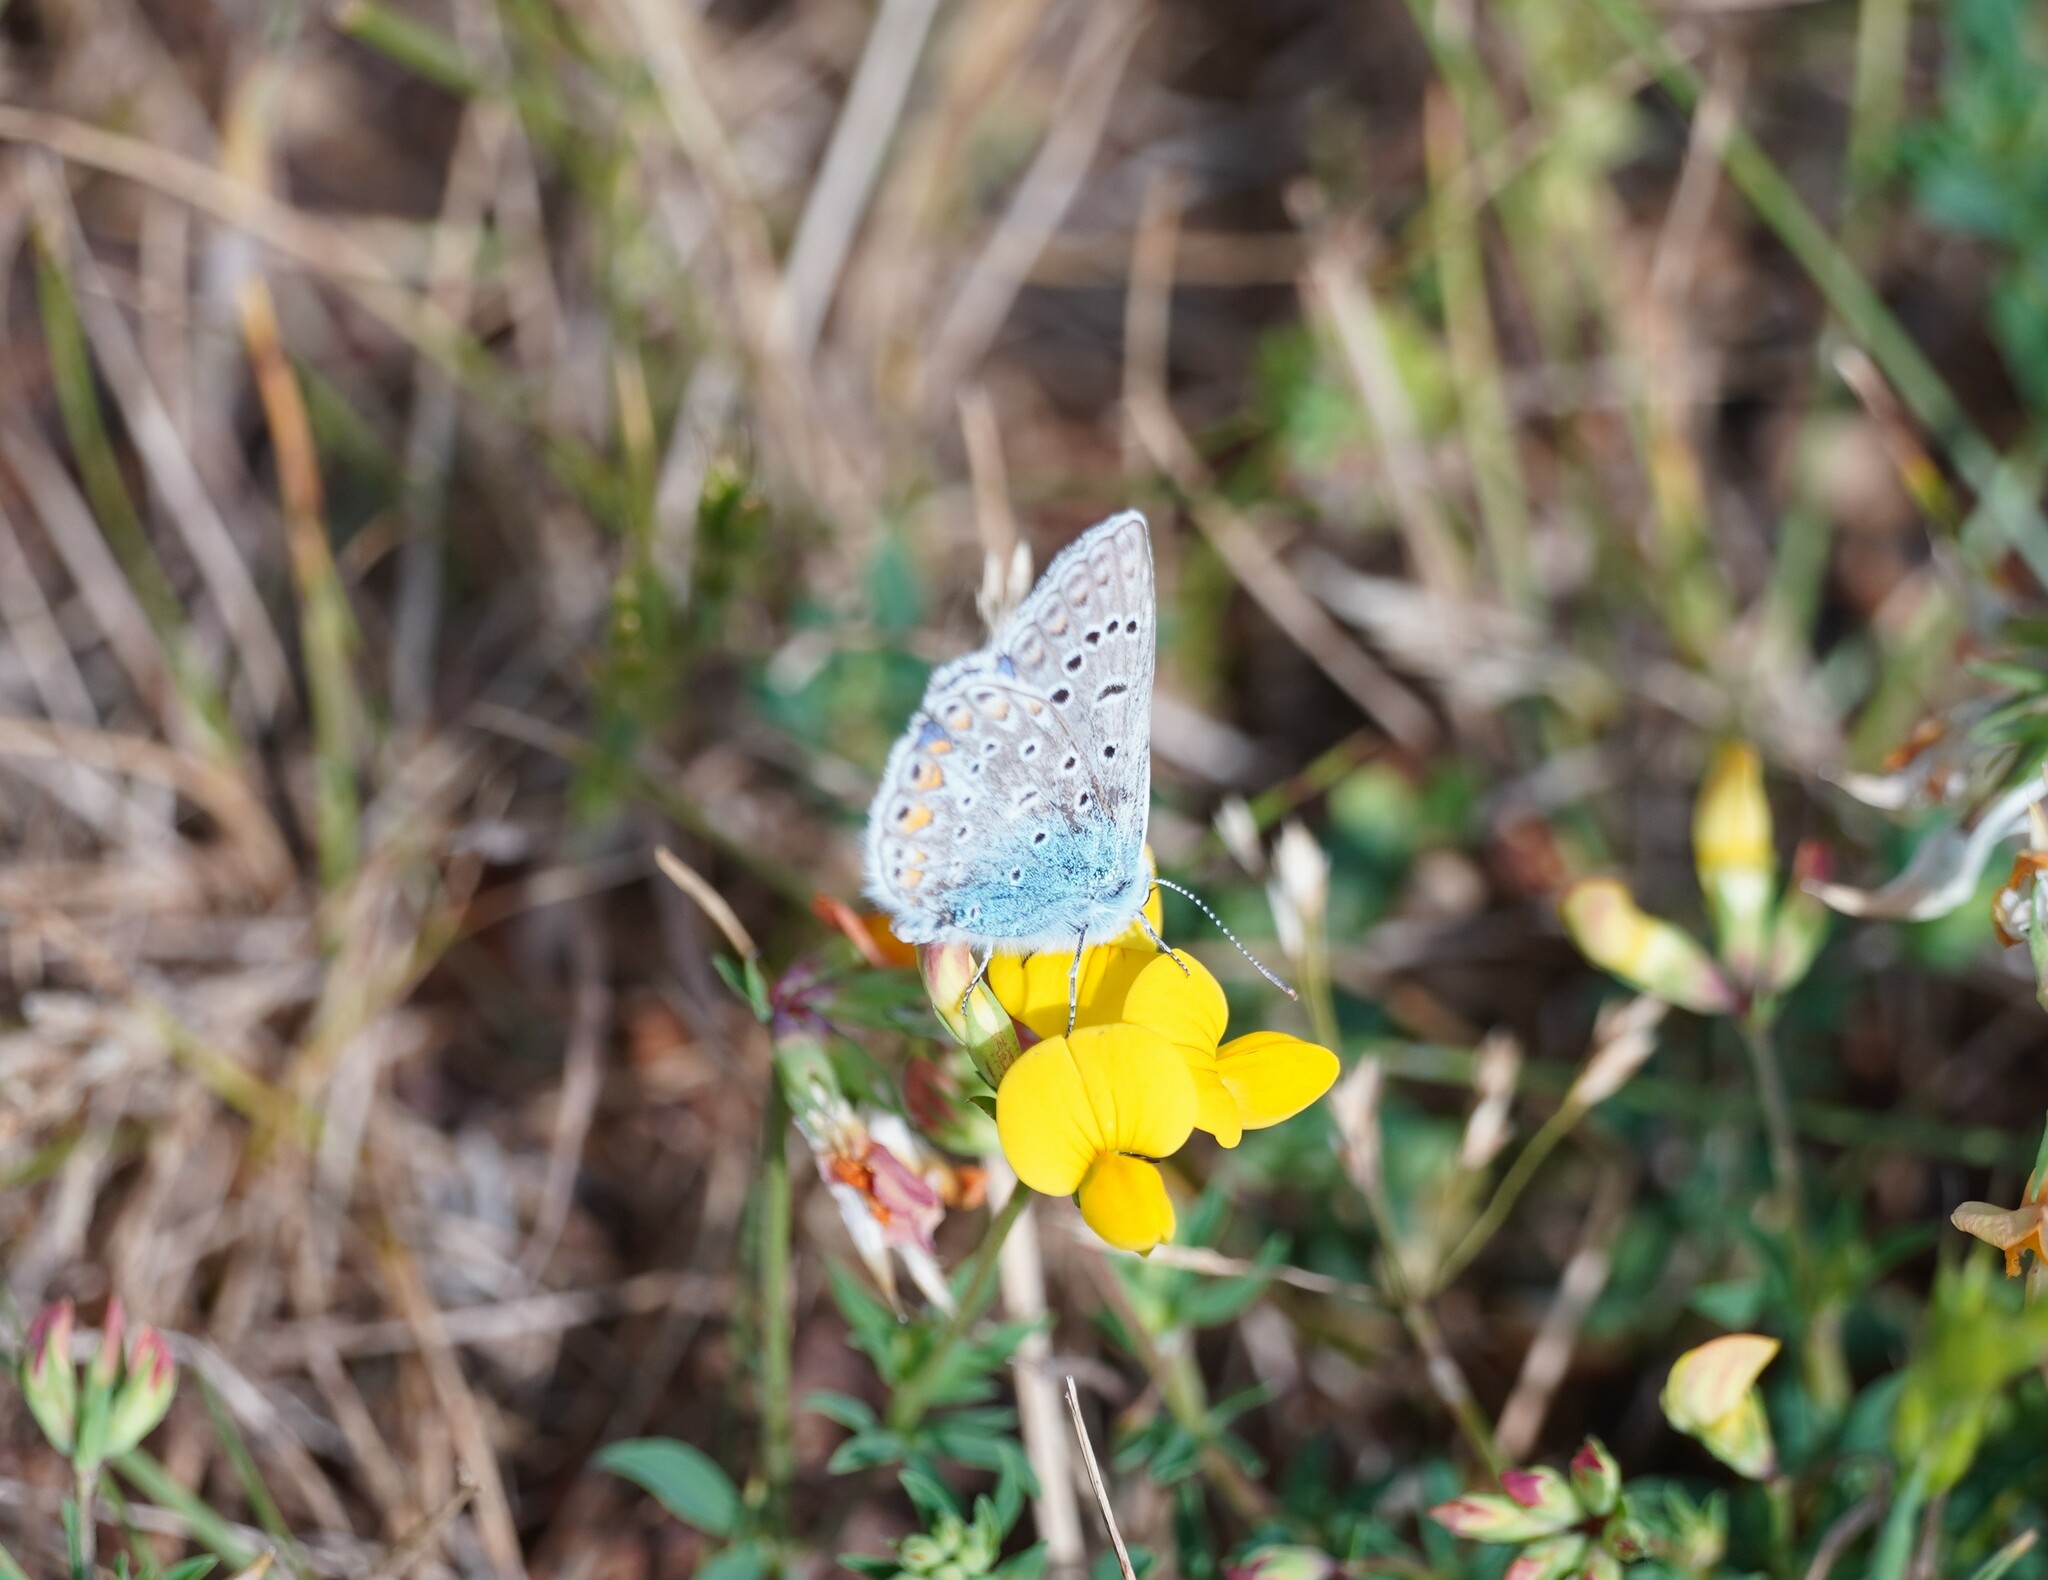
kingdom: Animalia
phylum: Arthropoda
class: Insecta
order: Lepidoptera
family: Lycaenidae
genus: Polyommatus
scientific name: Polyommatus icarus
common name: Common blue
